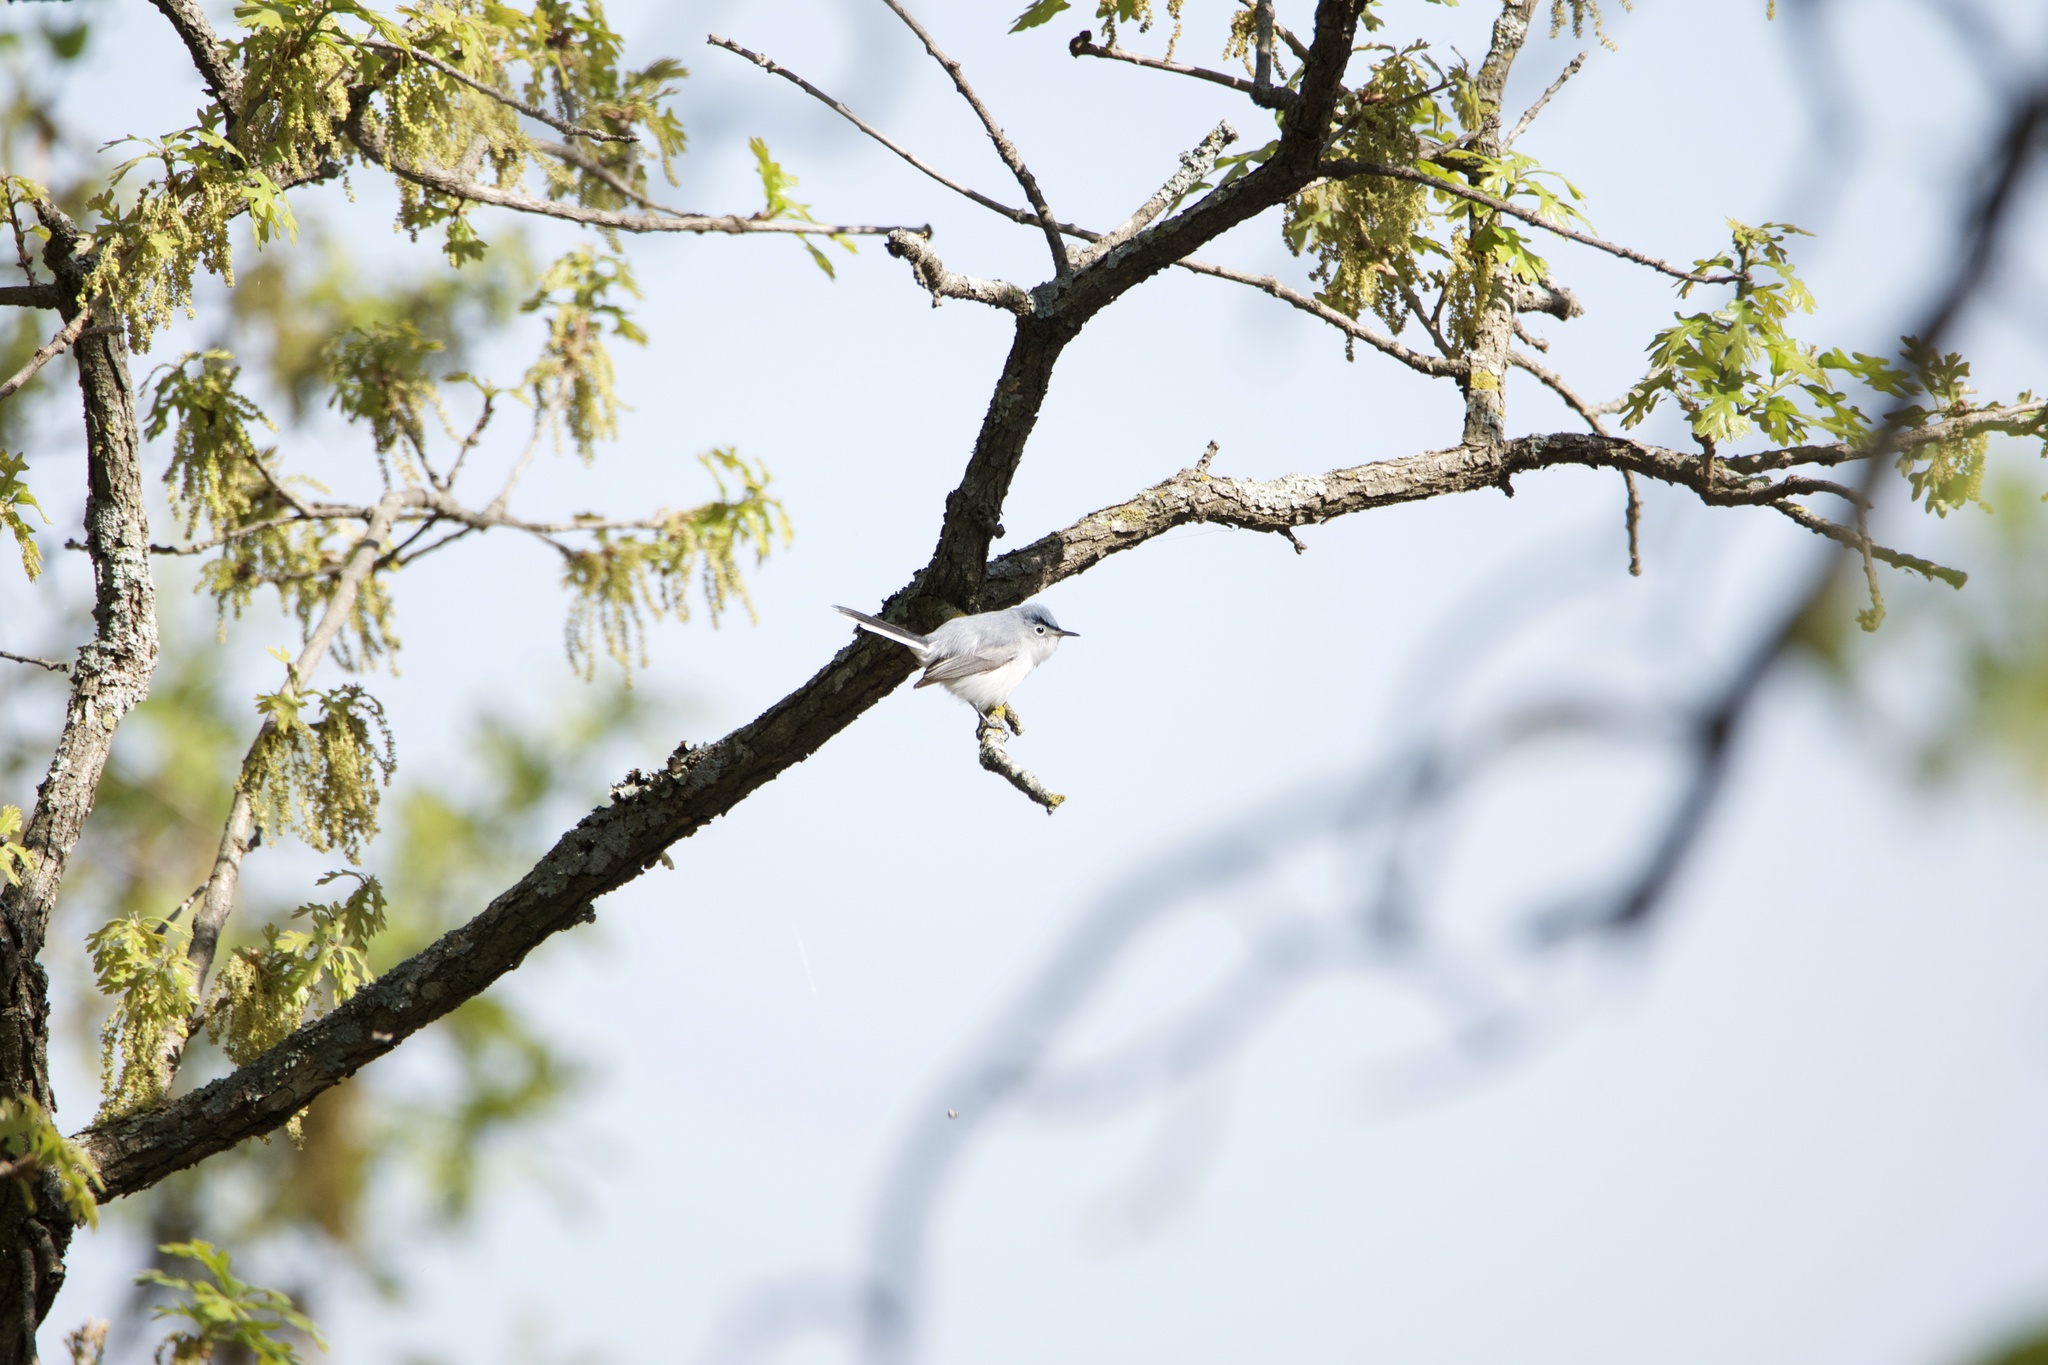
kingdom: Animalia
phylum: Chordata
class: Aves
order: Passeriformes
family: Polioptilidae
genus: Polioptila
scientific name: Polioptila caerulea
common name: Blue-gray gnatcatcher
